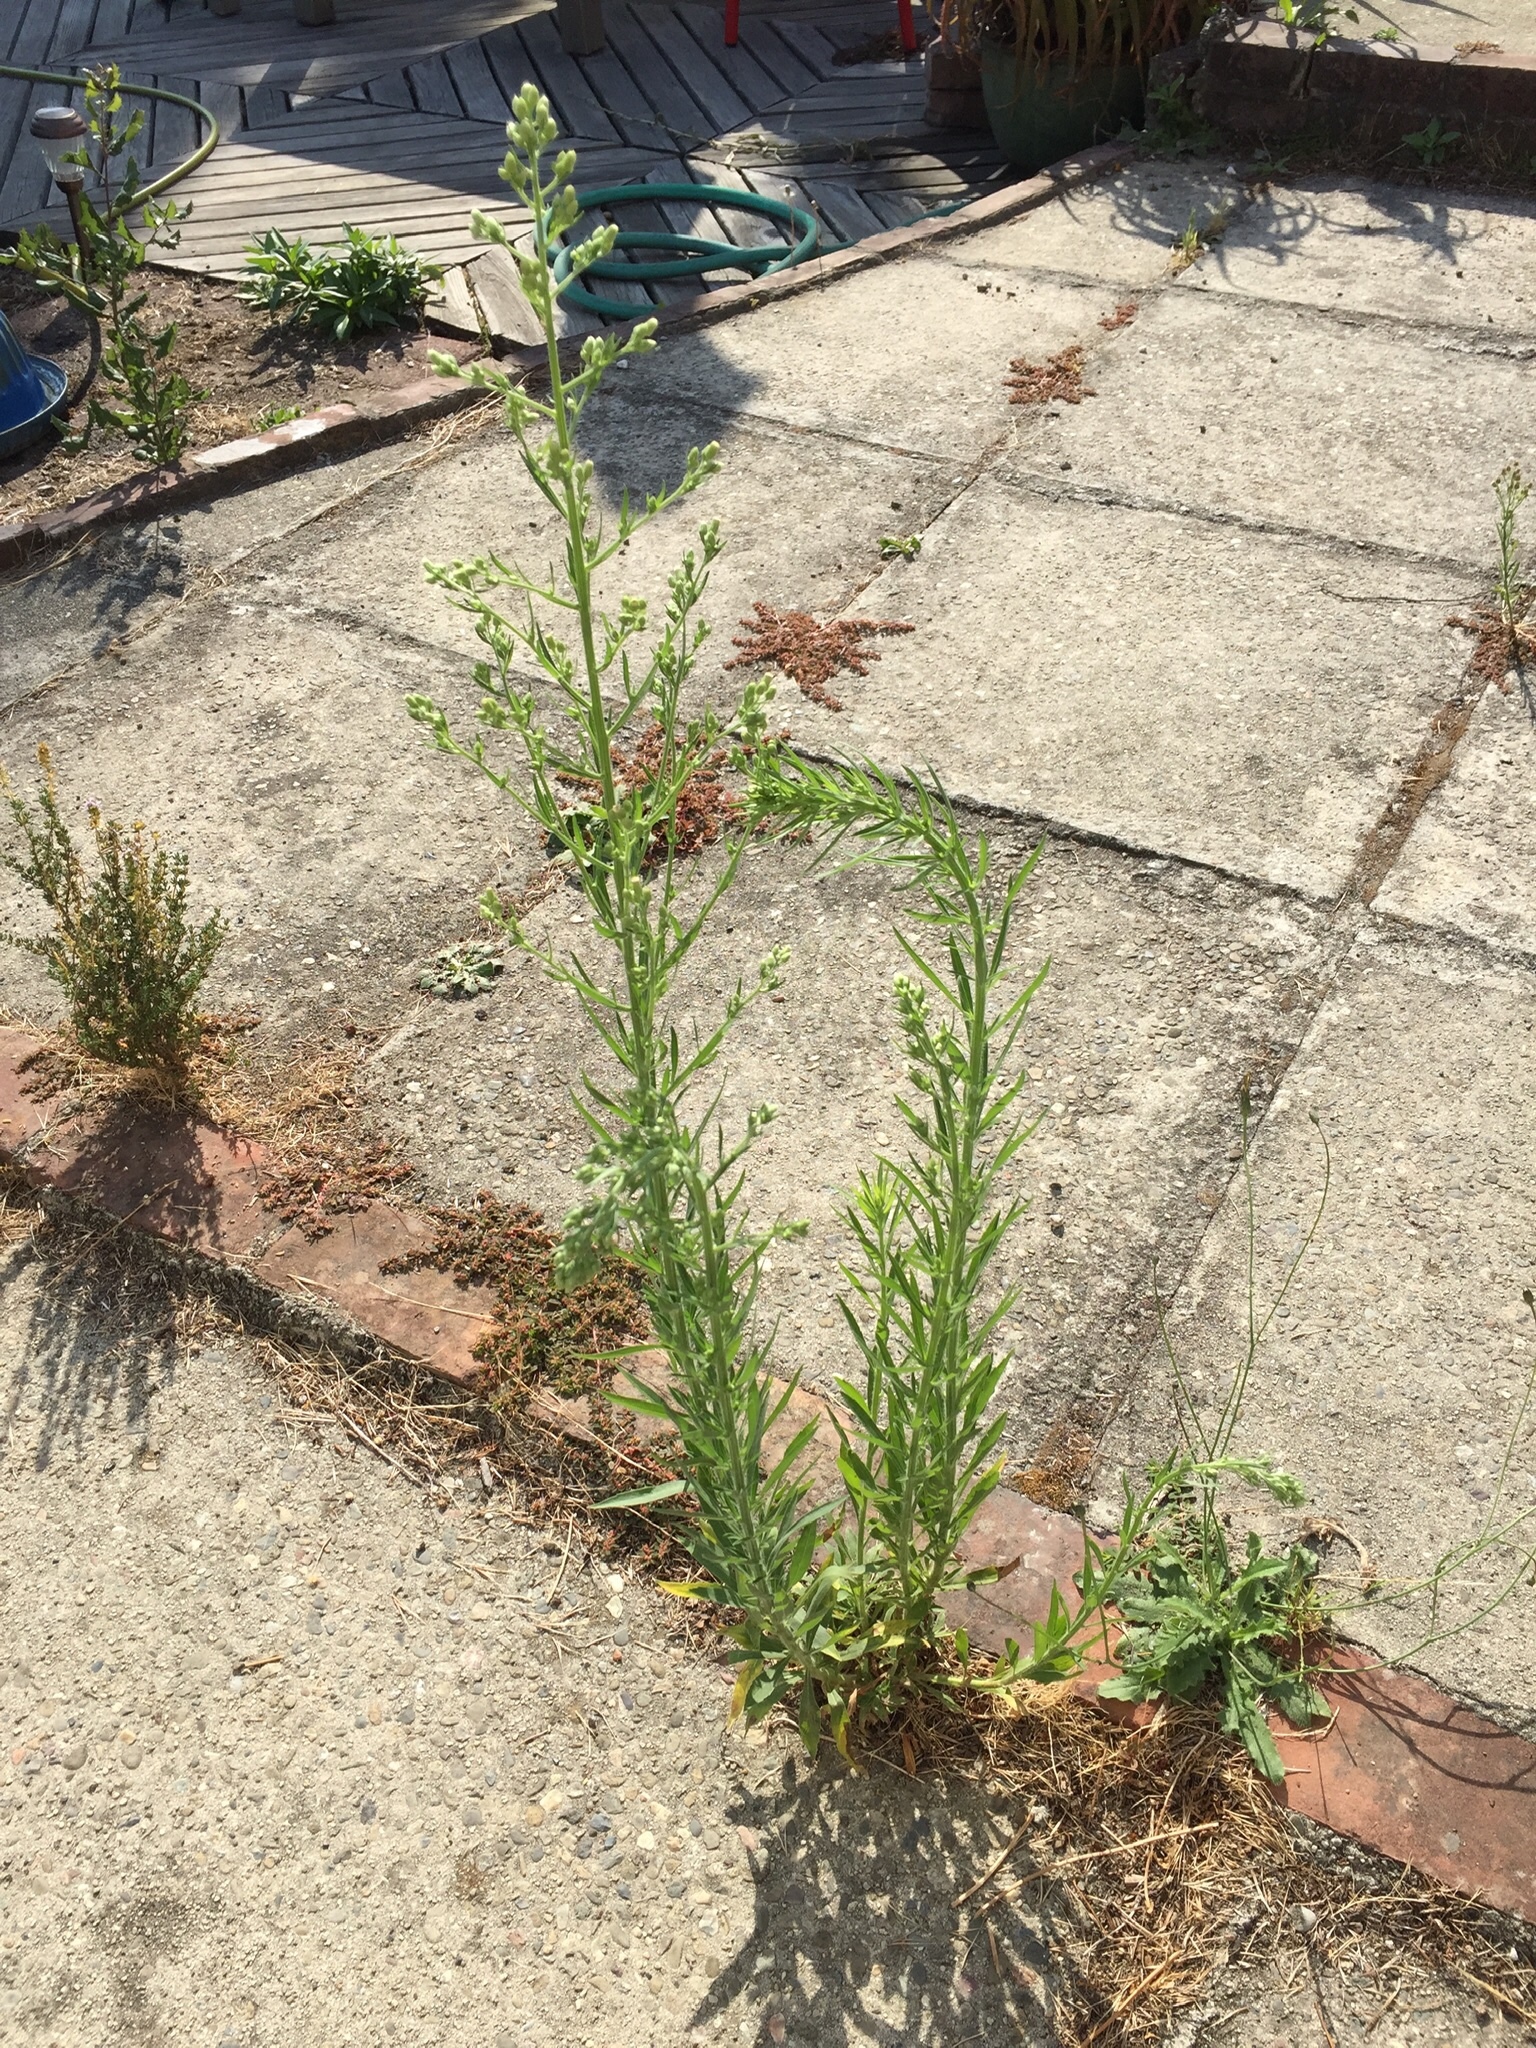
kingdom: Plantae
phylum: Tracheophyta
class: Magnoliopsida
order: Asterales
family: Asteraceae
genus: Erigeron
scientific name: Erigeron sumatrensis
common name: Daisy
